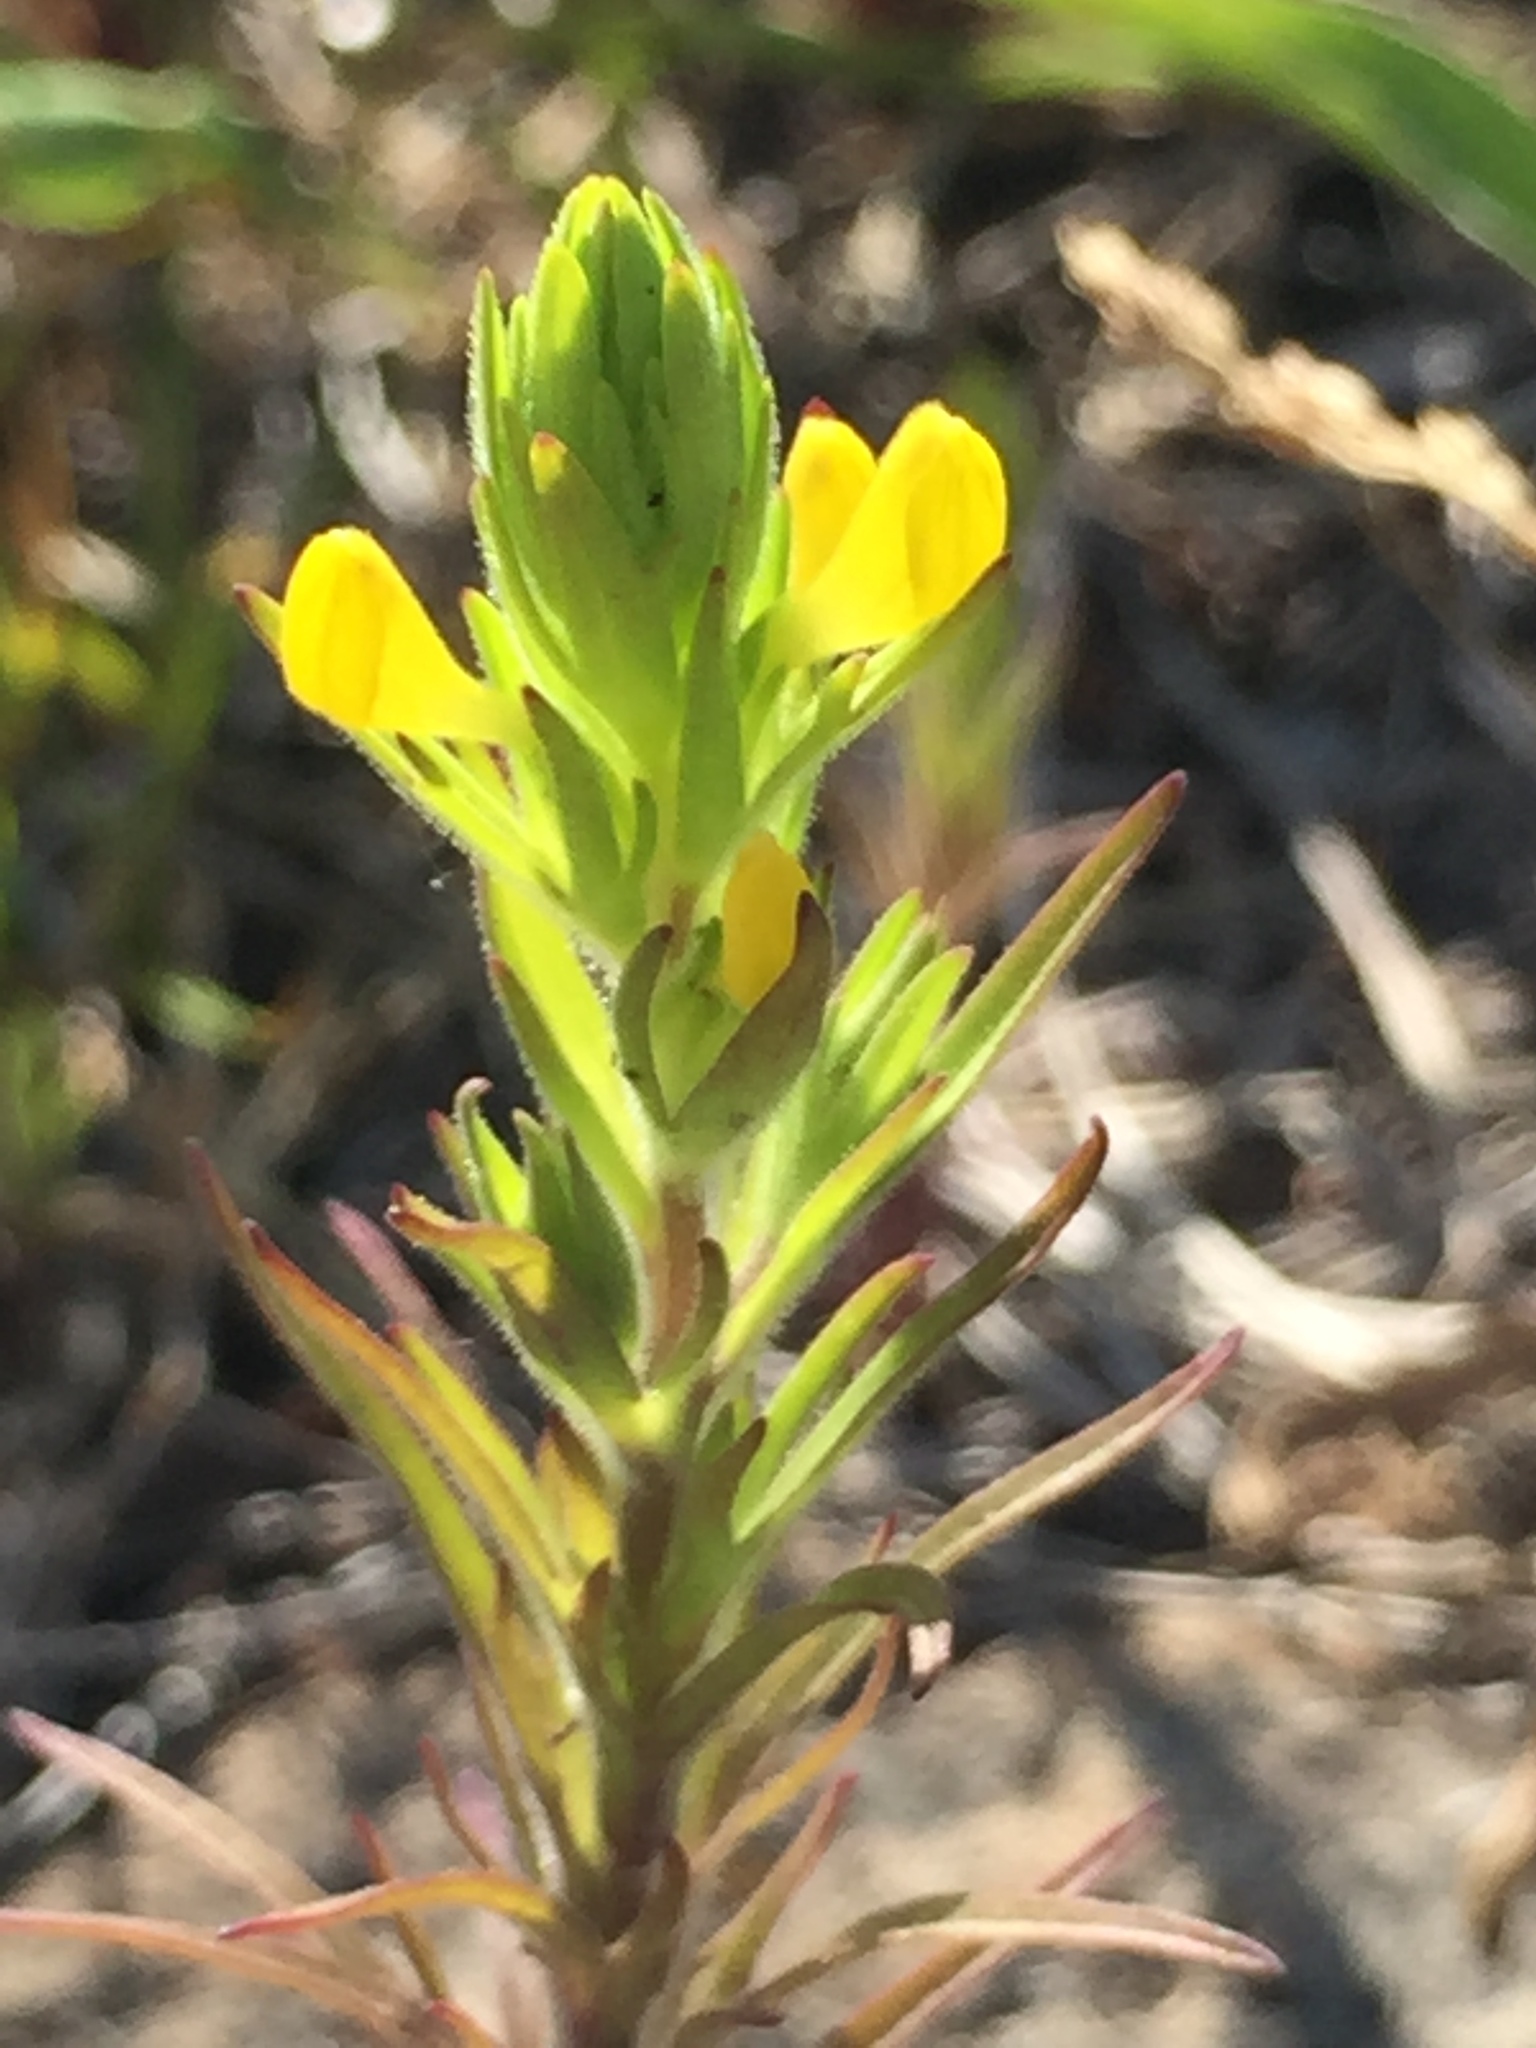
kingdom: Plantae
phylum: Tracheophyta
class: Magnoliopsida
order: Lamiales
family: Orobanchaceae
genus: Orthocarpus
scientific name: Orthocarpus luteus
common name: Golden-tongue owl's-clover
